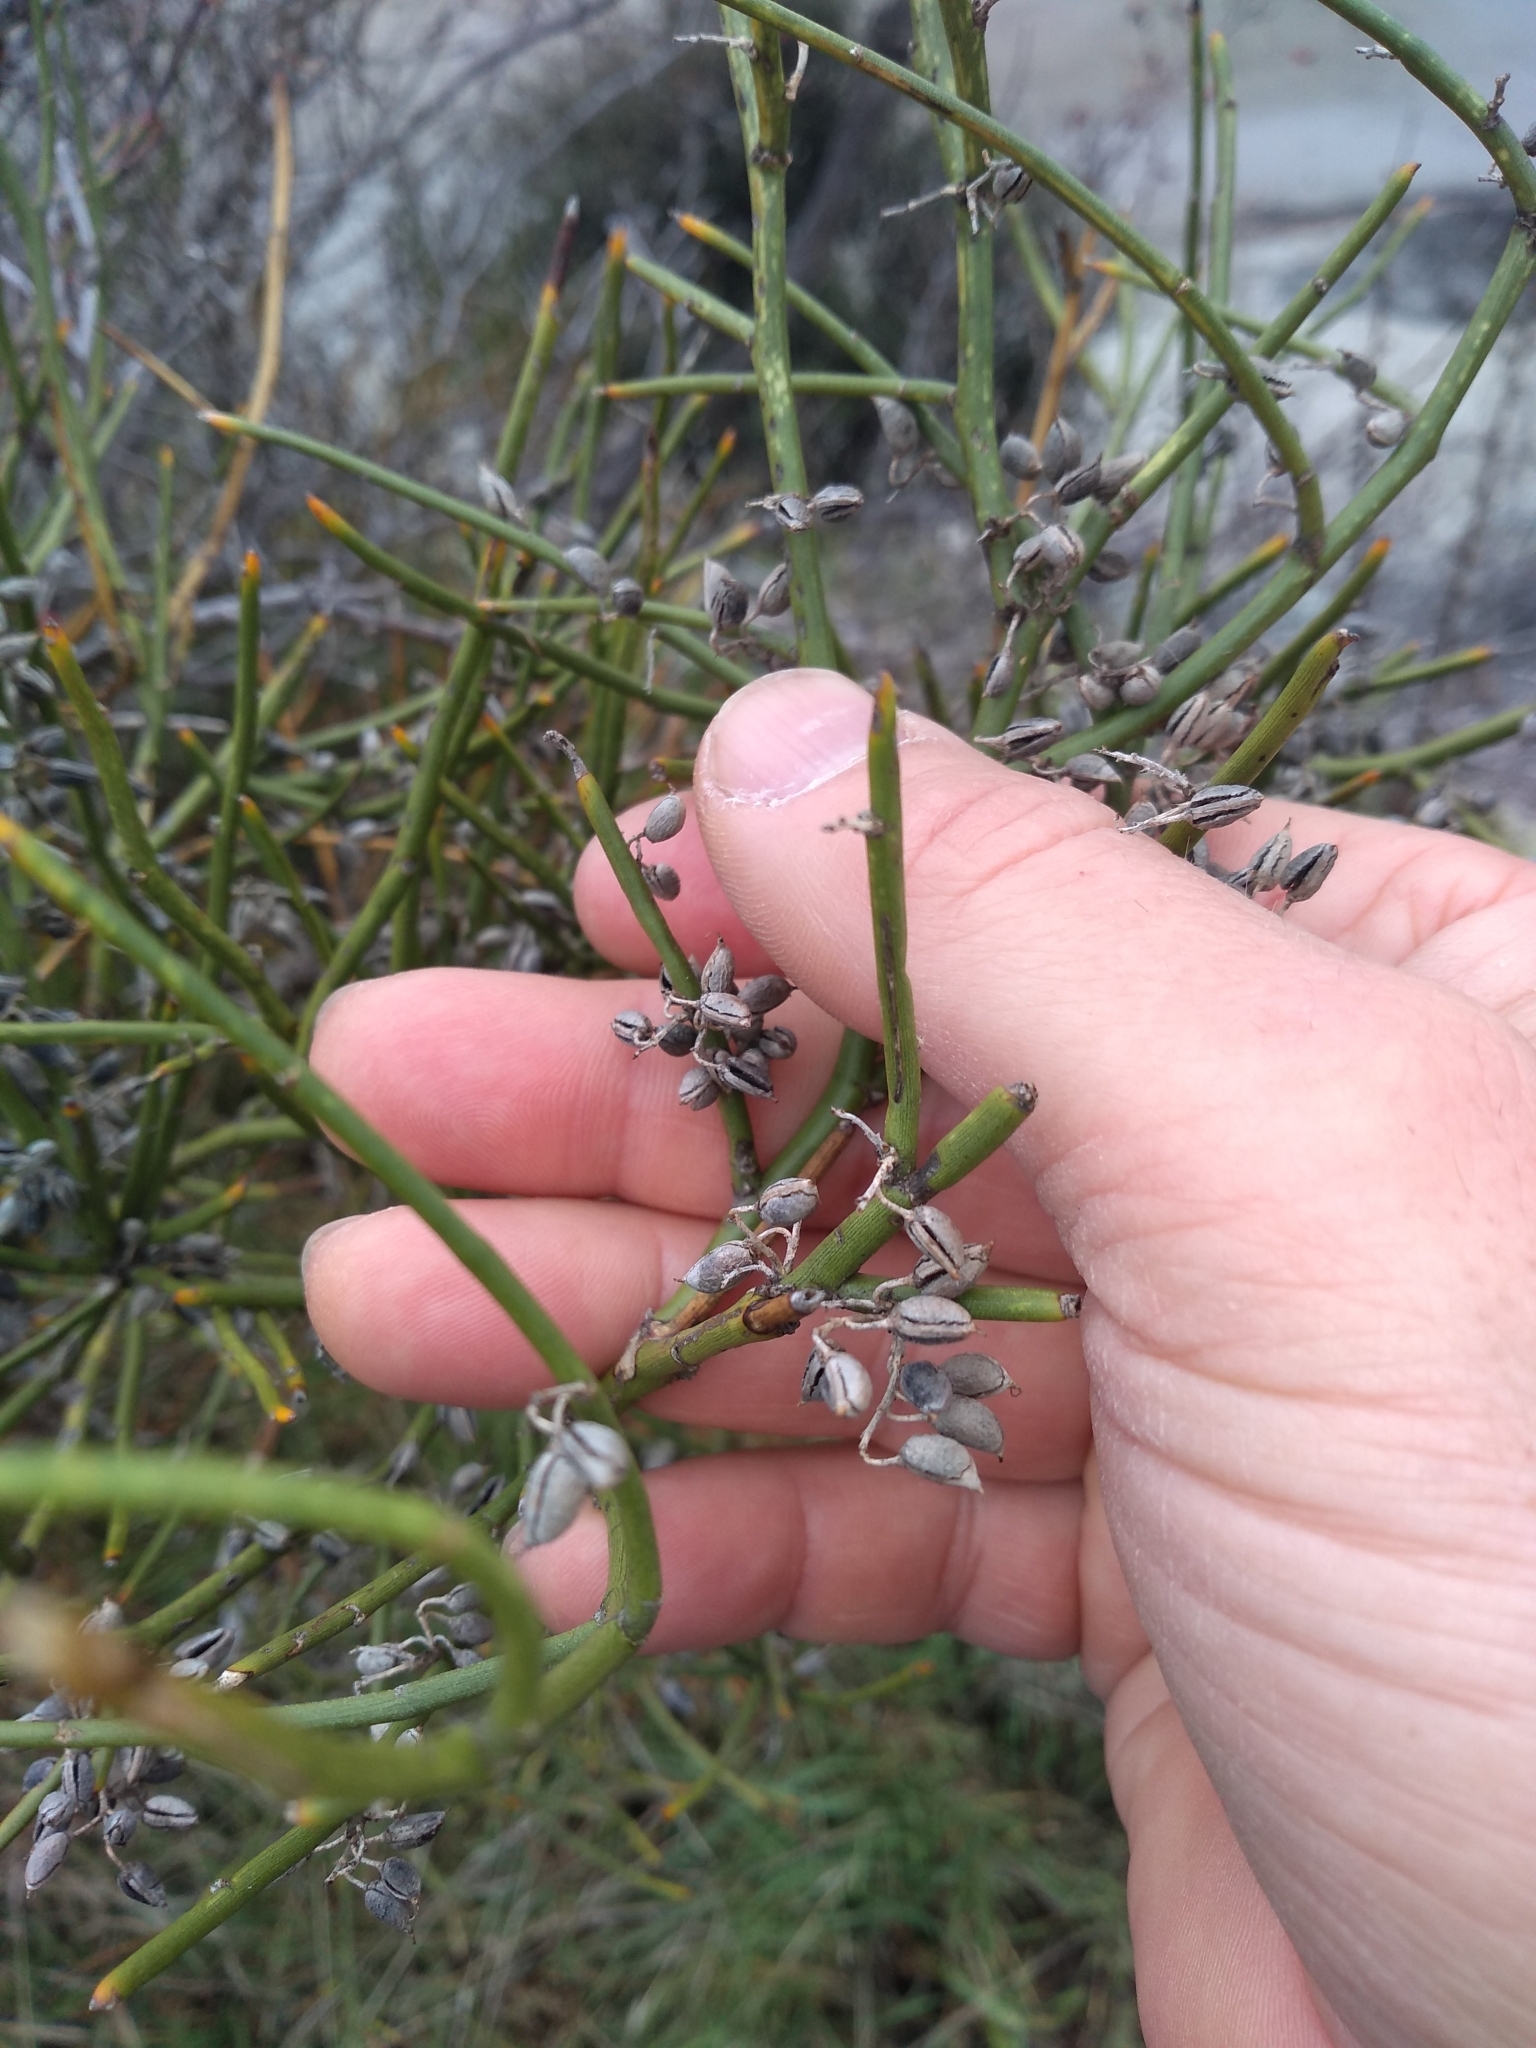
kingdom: Plantae
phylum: Tracheophyta
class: Magnoliopsida
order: Fabales
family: Fabaceae
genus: Carmichaelia
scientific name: Carmichaelia petriei
